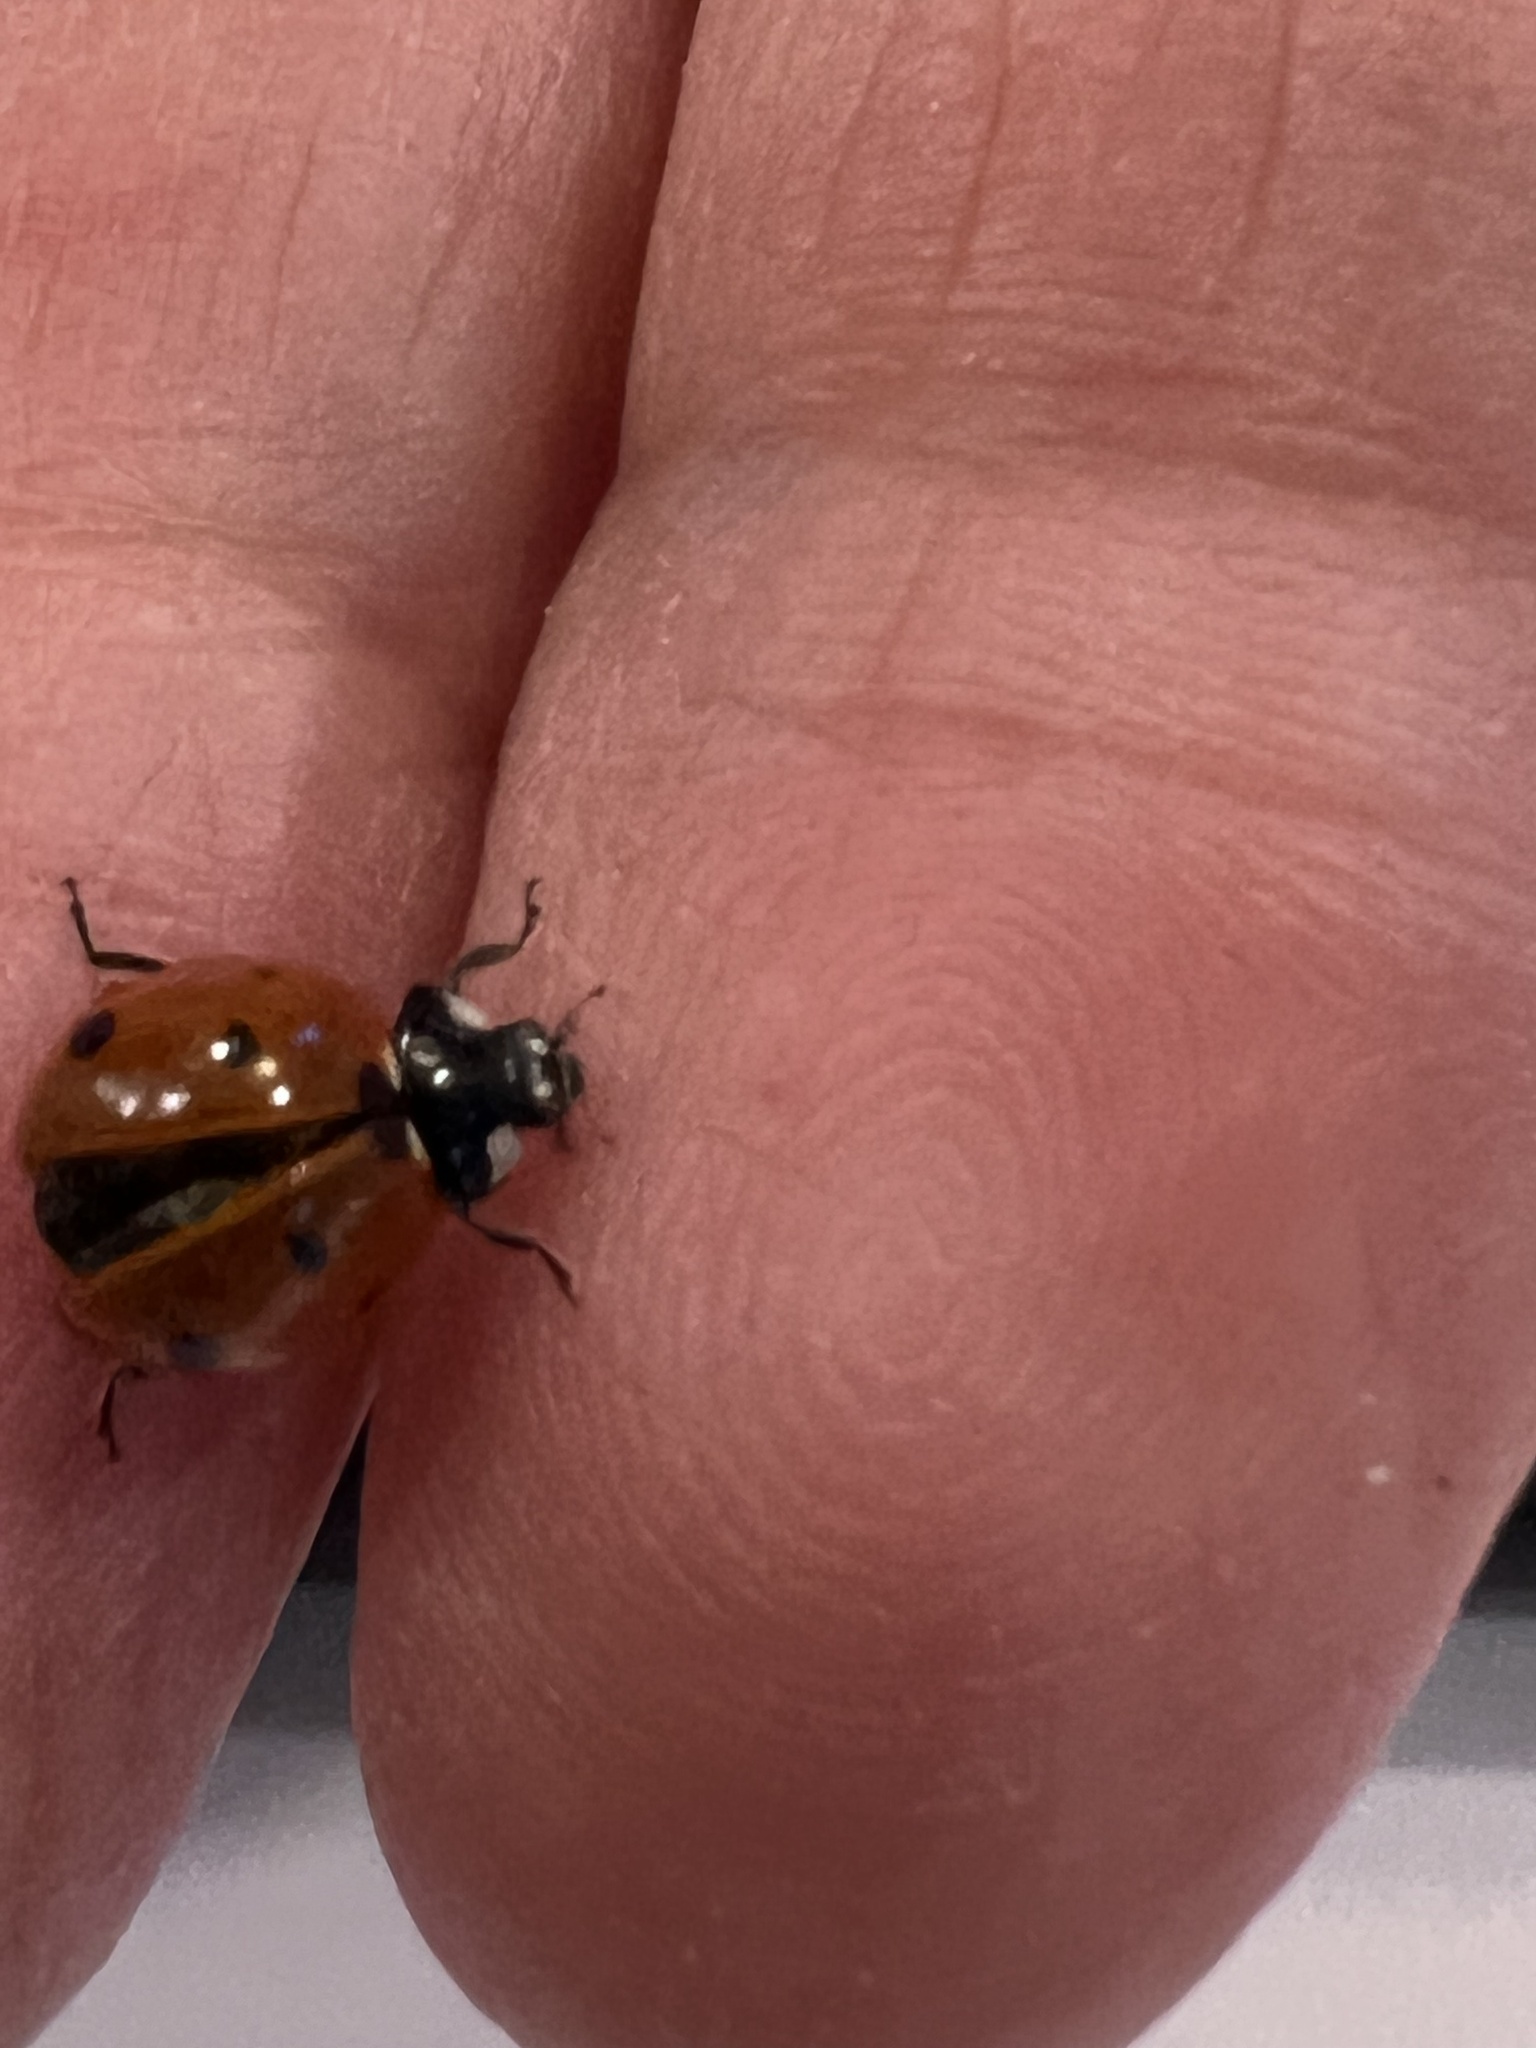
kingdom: Animalia
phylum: Arthropoda
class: Insecta
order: Coleoptera
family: Coccinellidae
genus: Coccinella
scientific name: Coccinella septempunctata
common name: Sevenspotted lady beetle
